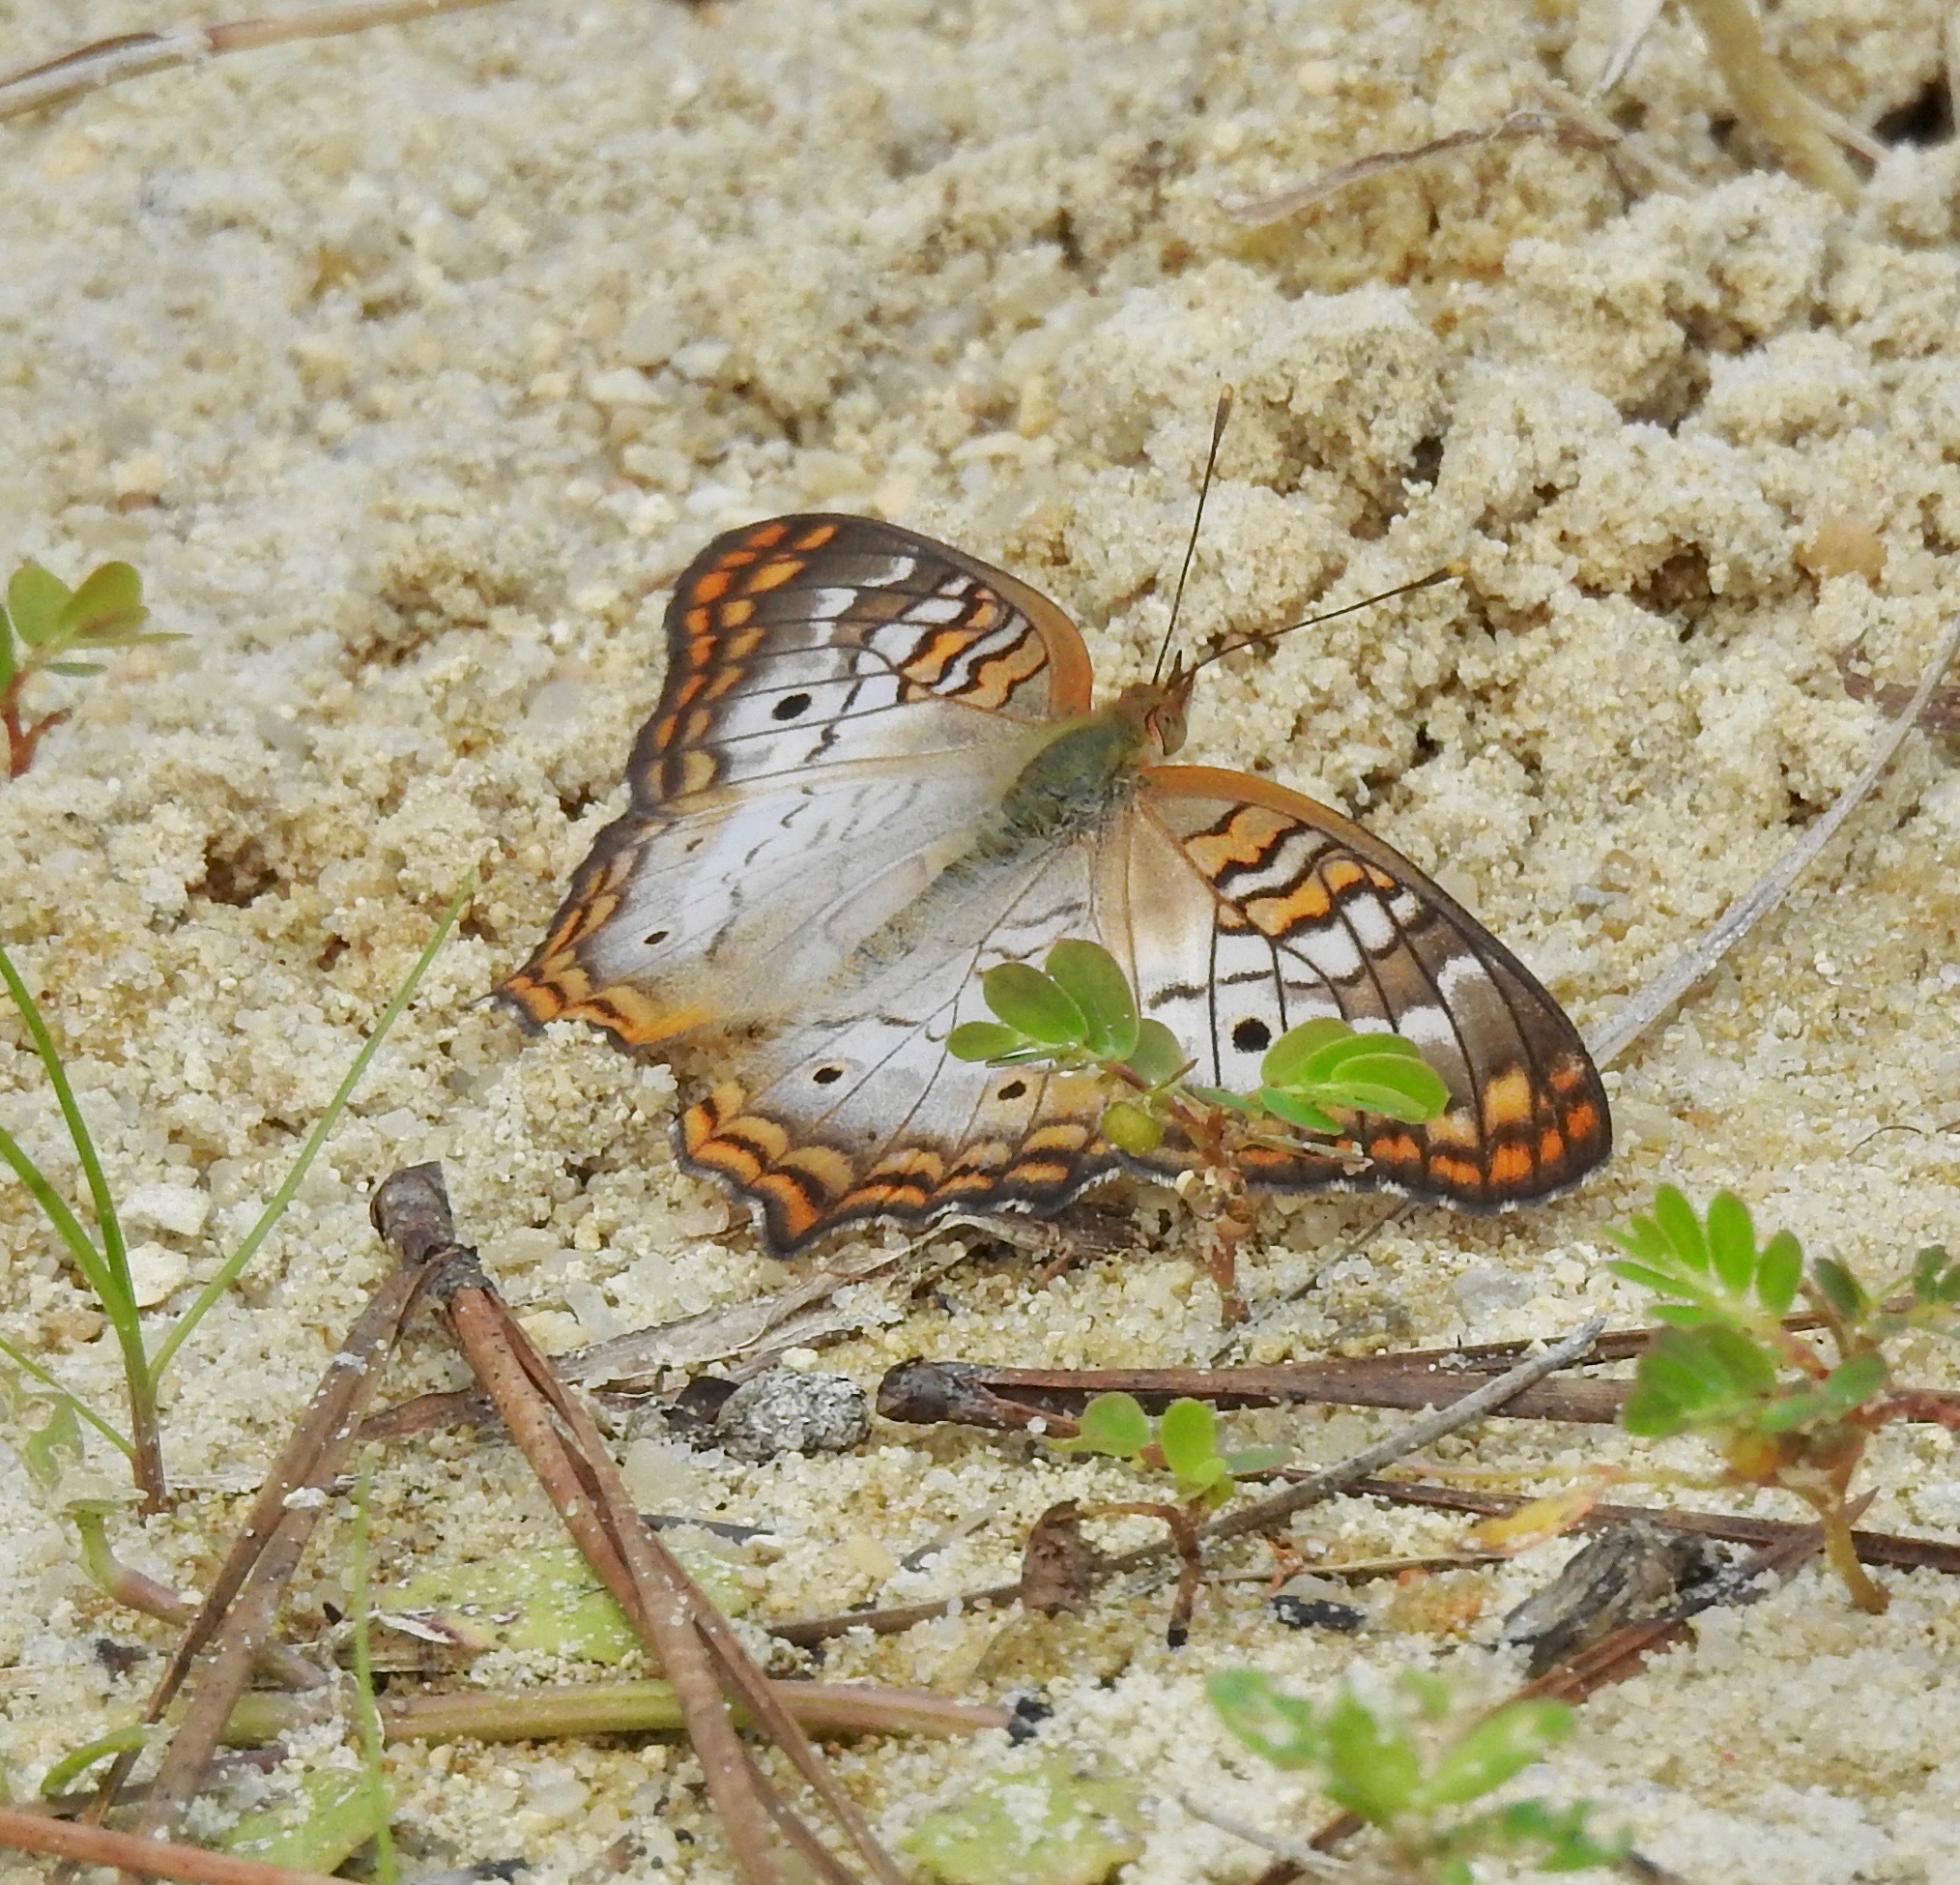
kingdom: Animalia
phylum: Arthropoda
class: Insecta
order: Lepidoptera
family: Nymphalidae
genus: Anartia
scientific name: Anartia jatrophae
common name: White peacock
